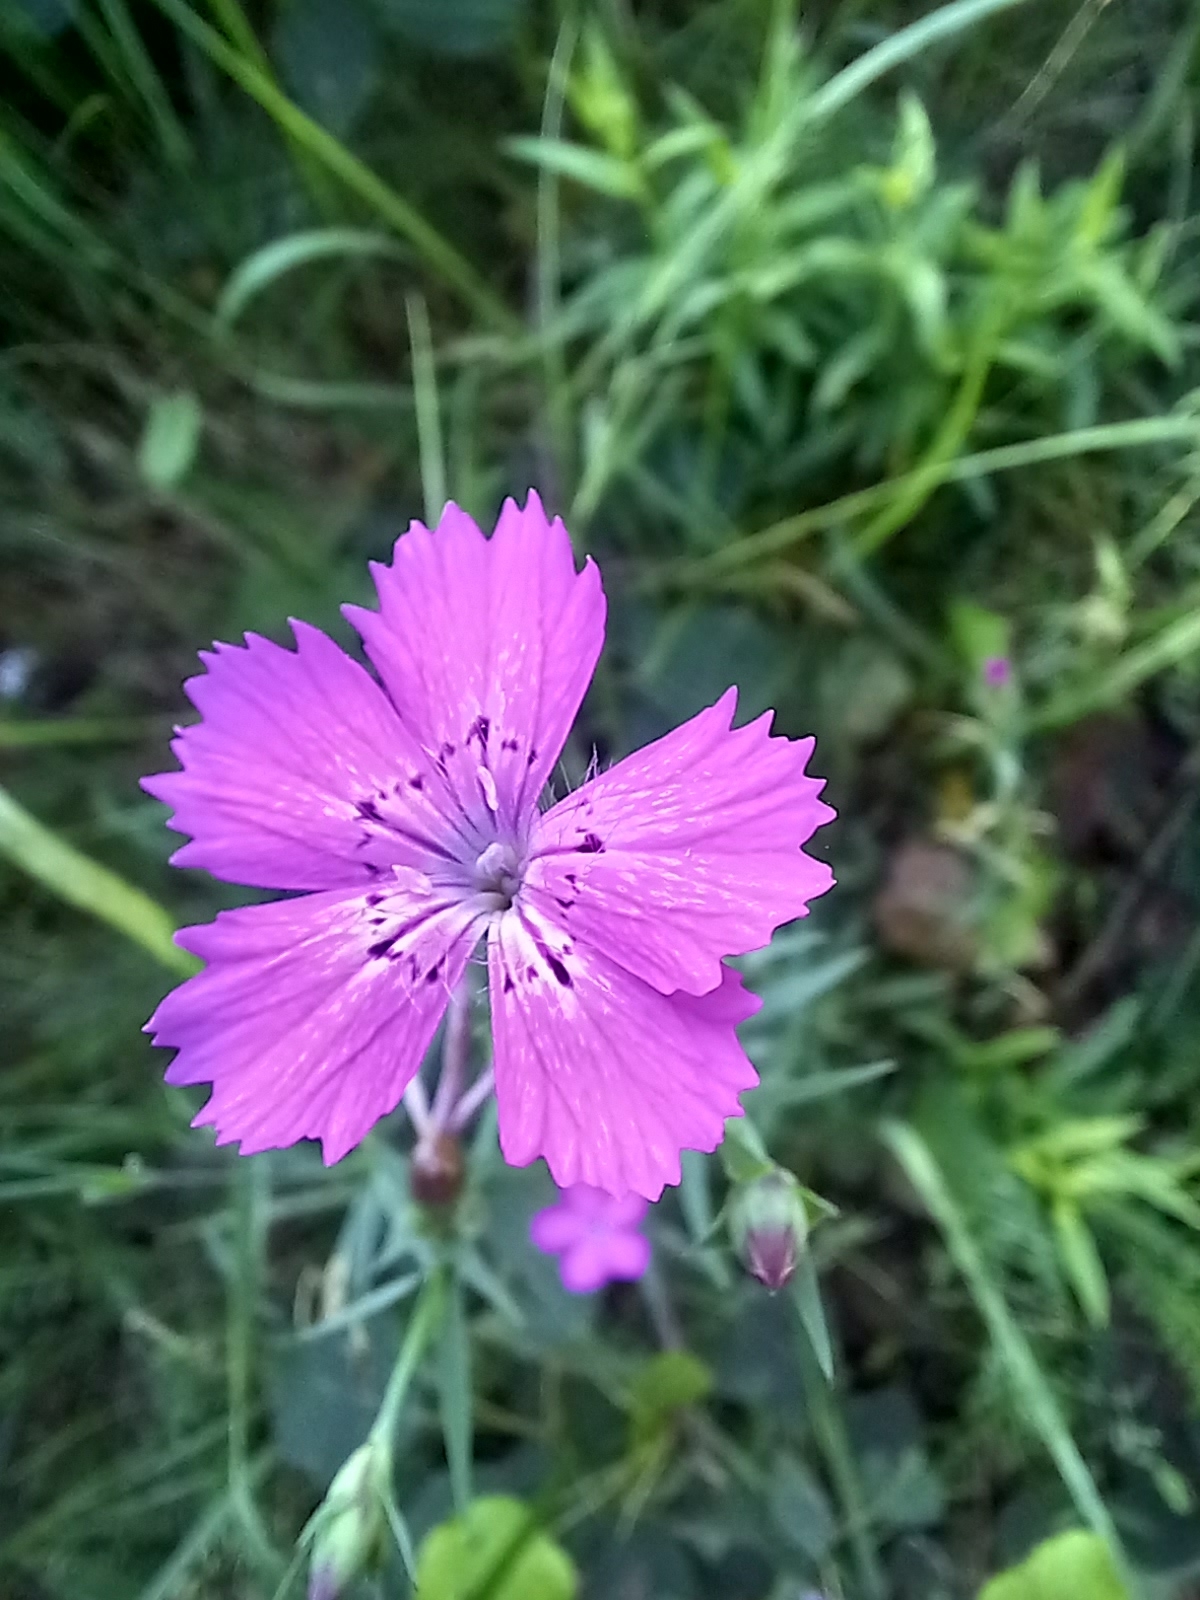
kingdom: Plantae
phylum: Tracheophyta
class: Magnoliopsida
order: Caryophyllales
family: Caryophyllaceae
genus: Dianthus
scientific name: Dianthus chinensis
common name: Rainbow pink
